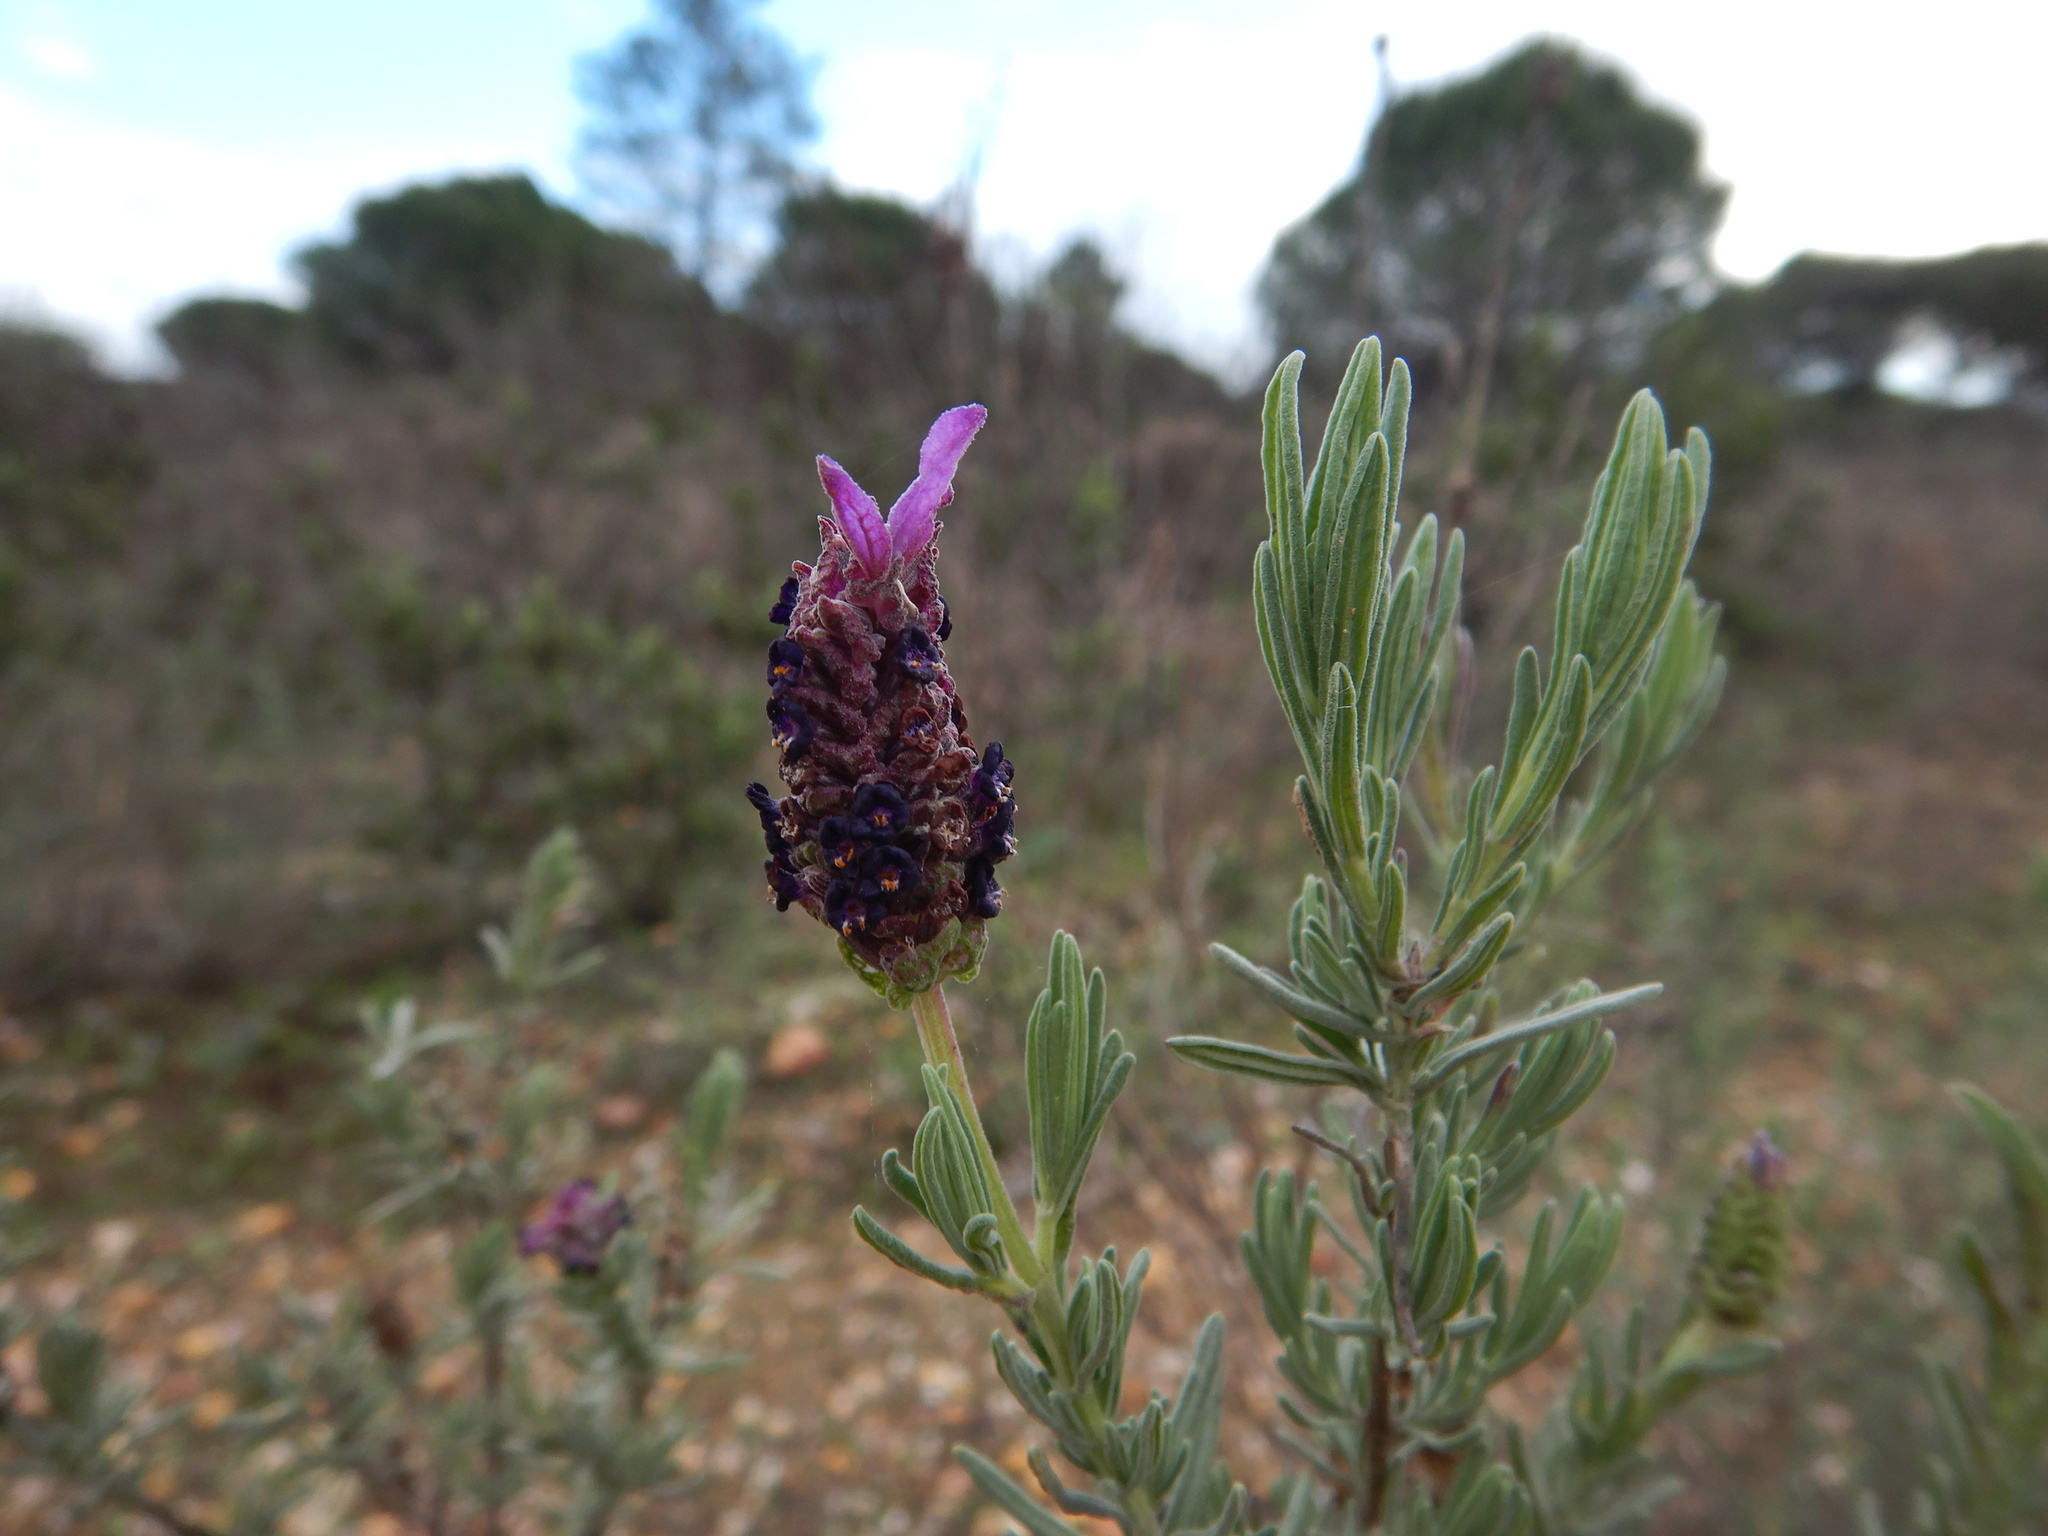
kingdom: Plantae
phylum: Tracheophyta
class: Magnoliopsida
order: Lamiales
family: Lamiaceae
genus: Lavandula
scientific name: Lavandula stoechas
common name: French lavender
